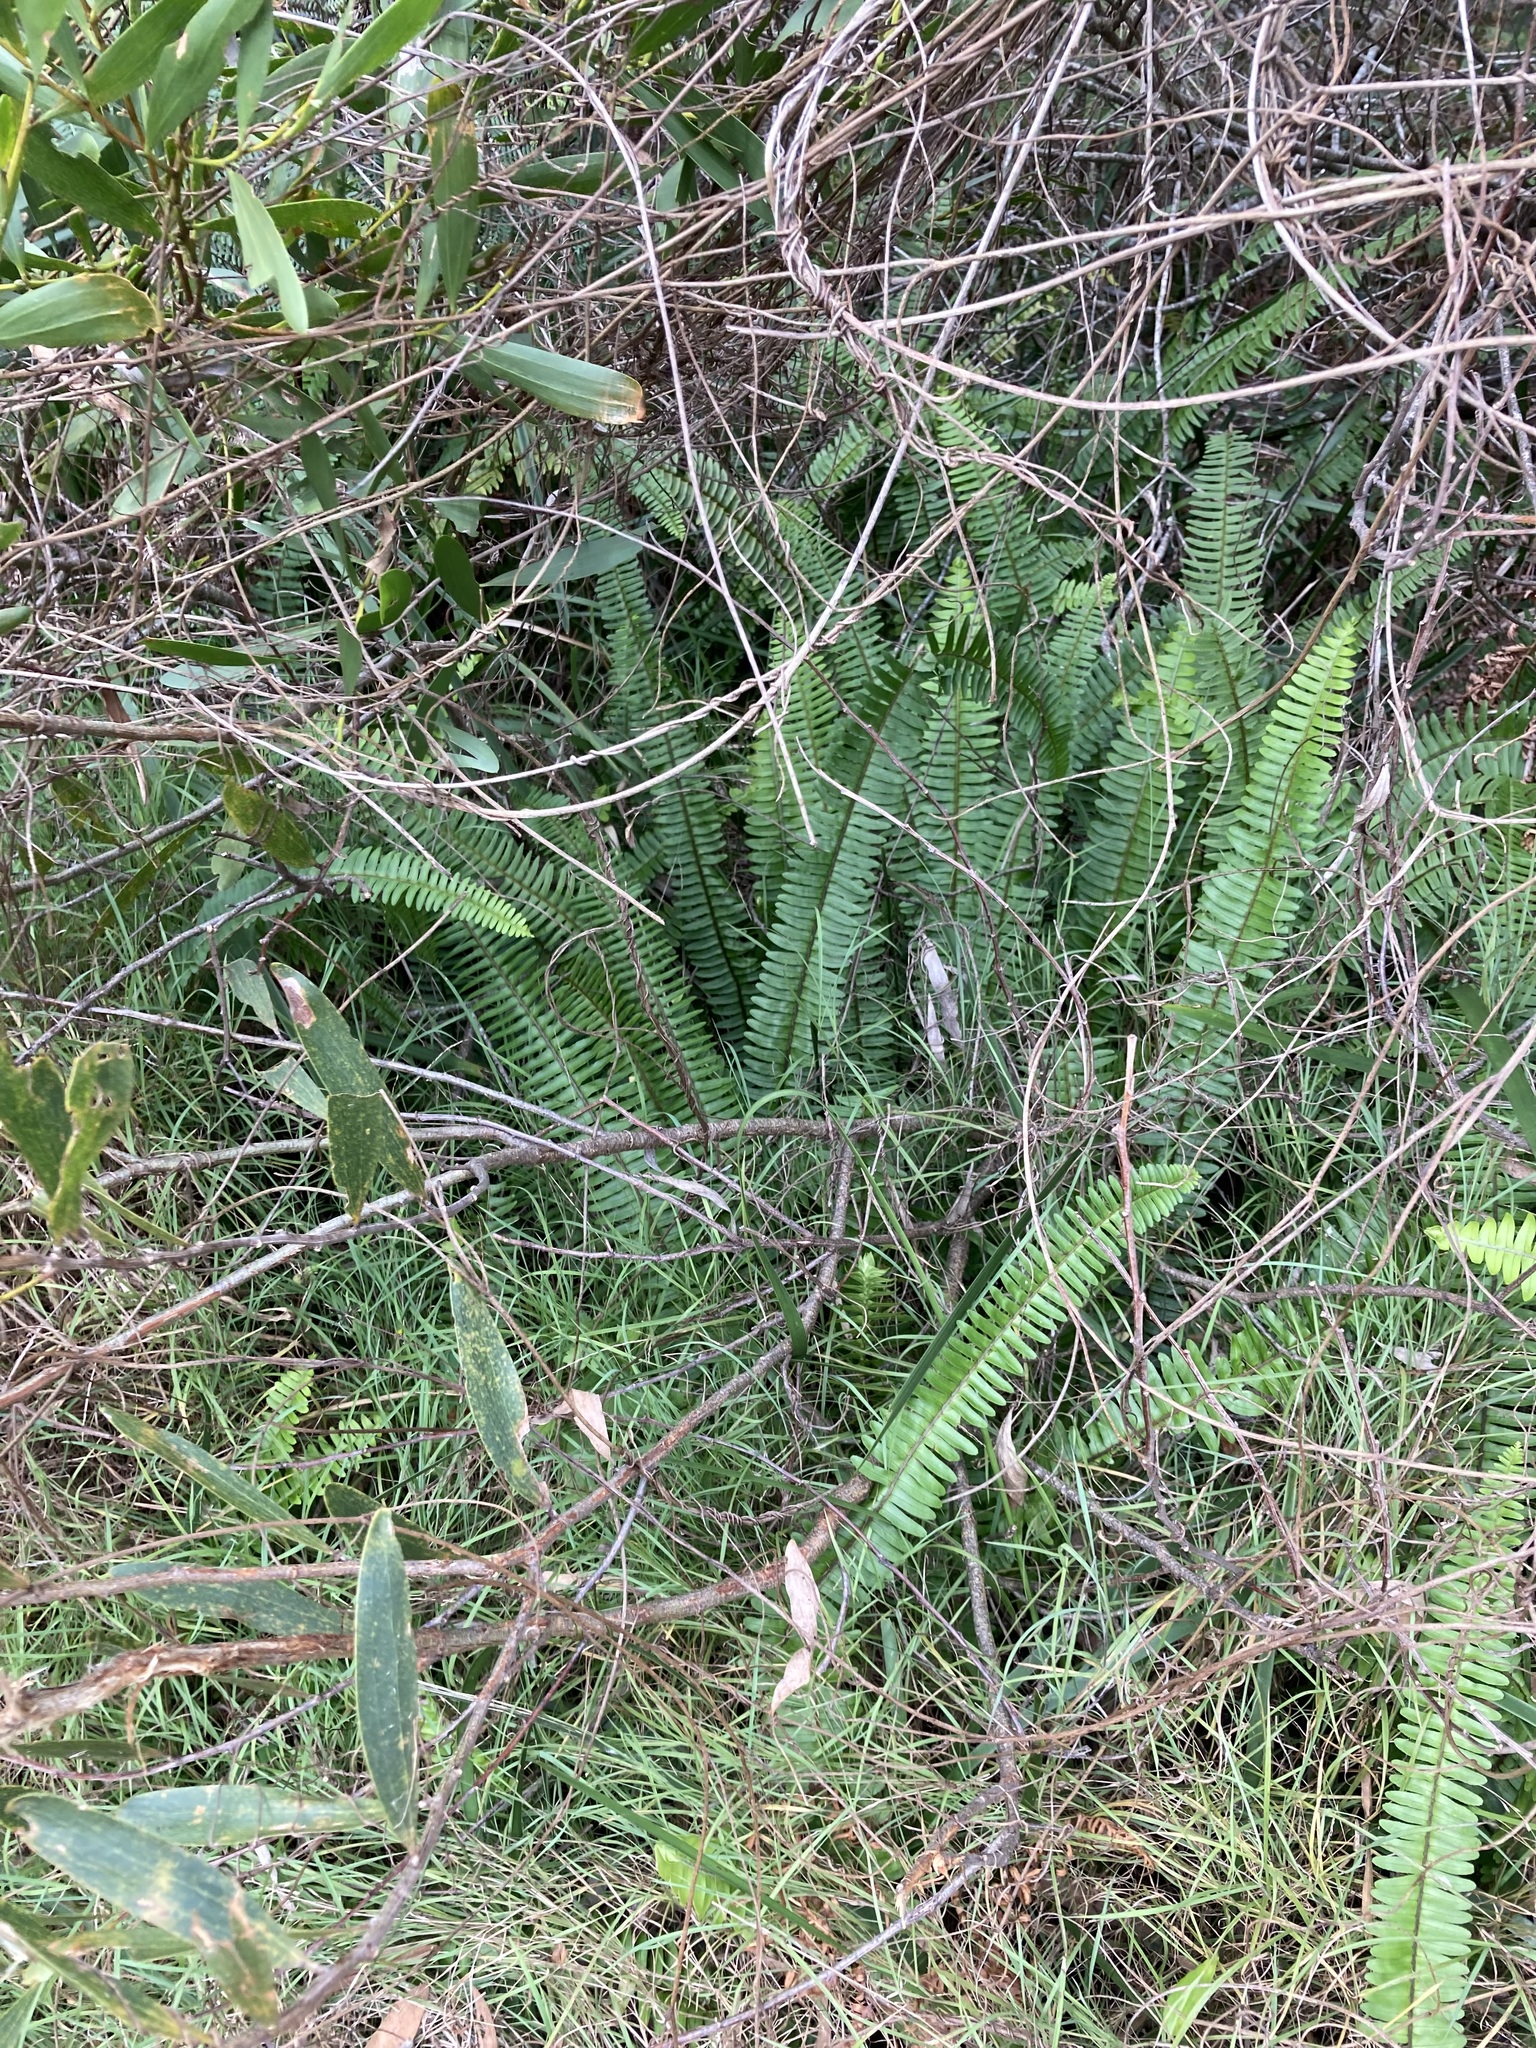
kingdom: Plantae
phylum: Tracheophyta
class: Polypodiopsida
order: Polypodiales
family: Nephrolepidaceae
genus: Nephrolepis
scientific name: Nephrolepis cordifolia
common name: Narrow swordfern
